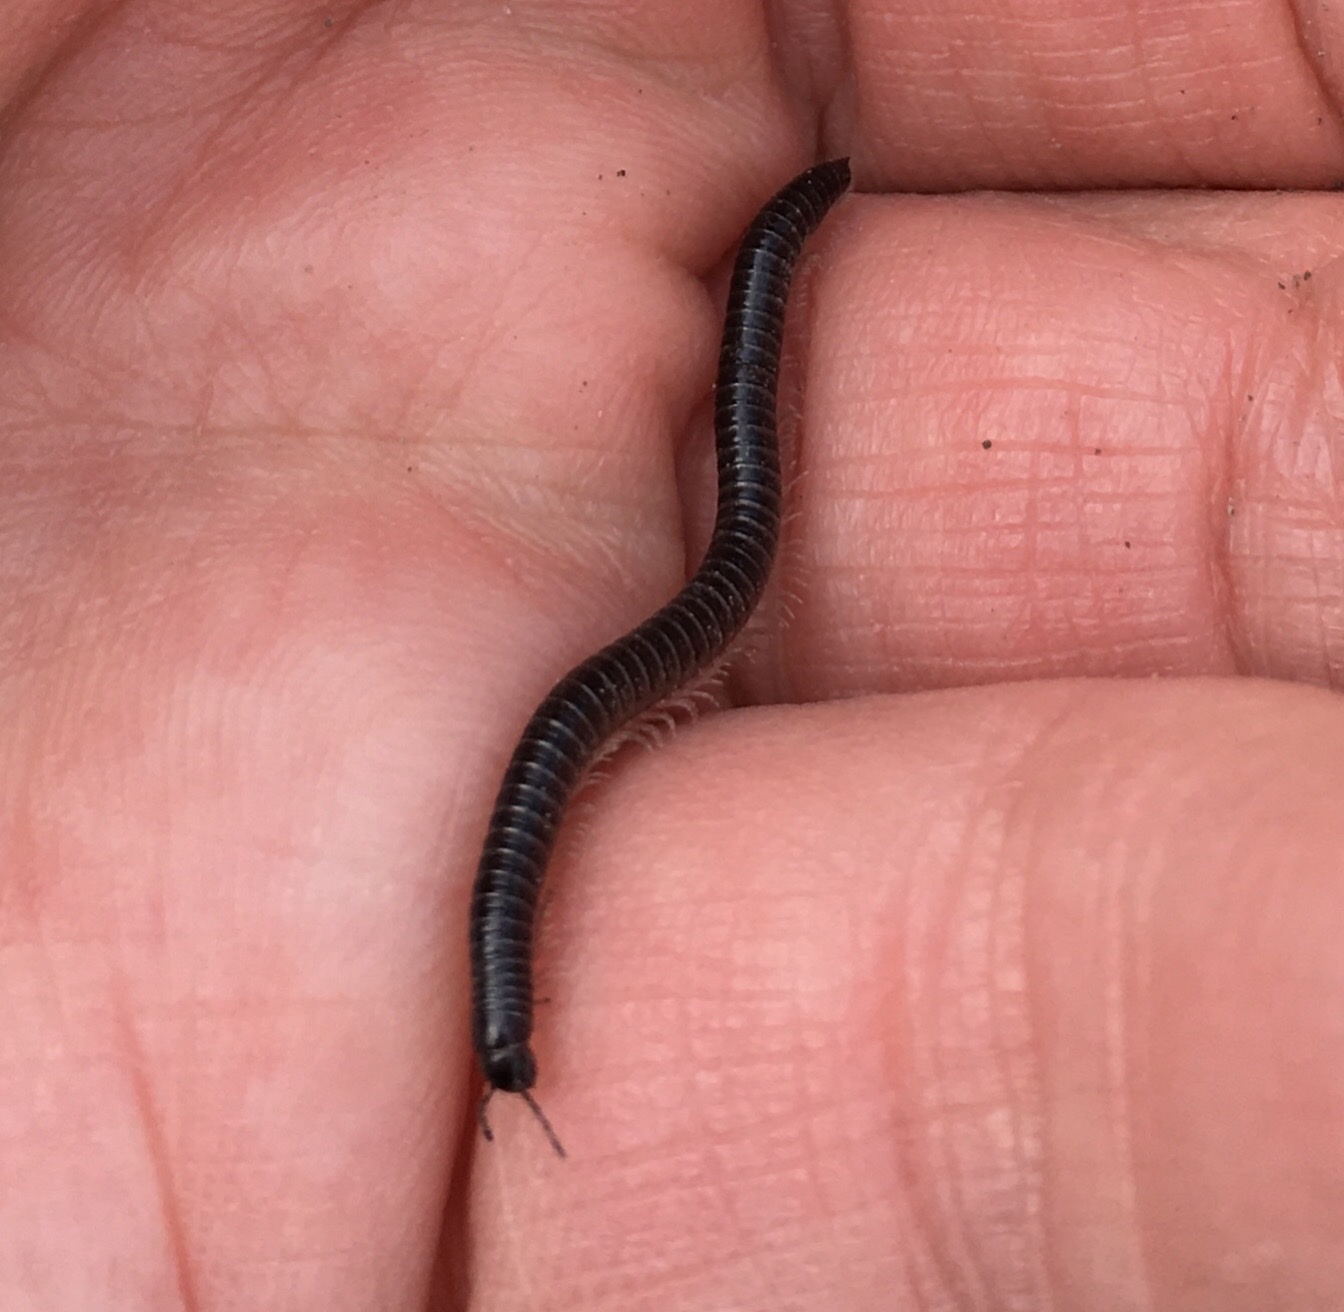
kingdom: Animalia
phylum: Arthropoda
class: Diplopoda
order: Julida
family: Julidae
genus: Tachypodoiulus
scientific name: Tachypodoiulus niger
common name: White-legged snake millipede
